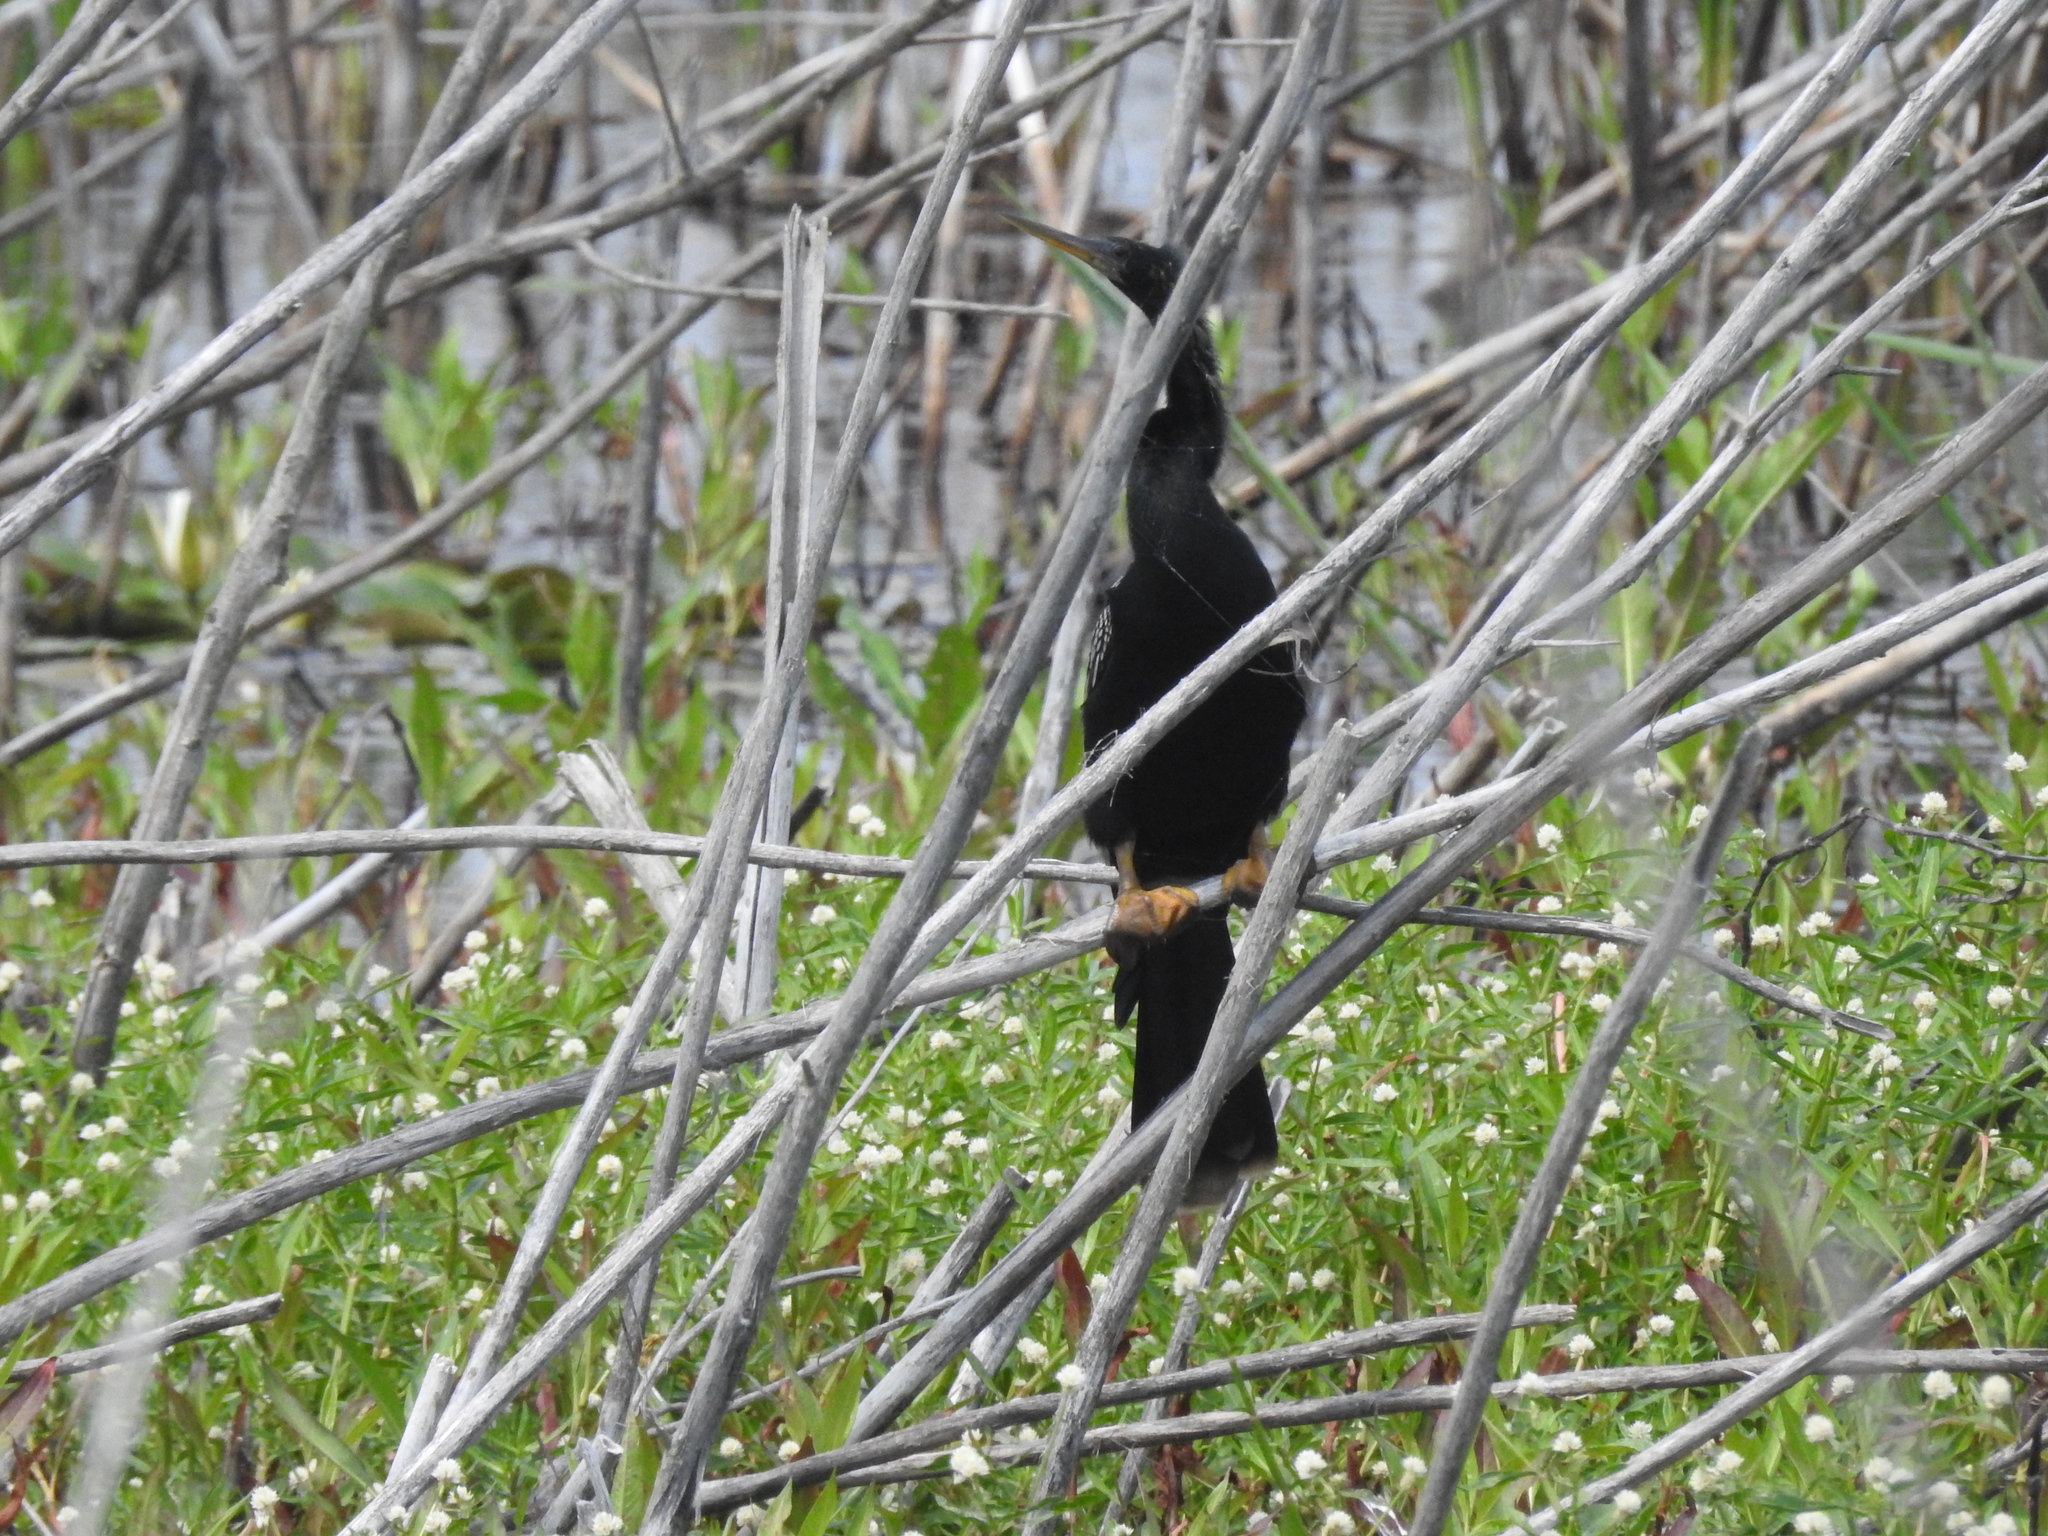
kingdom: Animalia
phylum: Chordata
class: Aves
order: Suliformes
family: Anhingidae
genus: Anhinga
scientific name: Anhinga anhinga
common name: Anhinga
